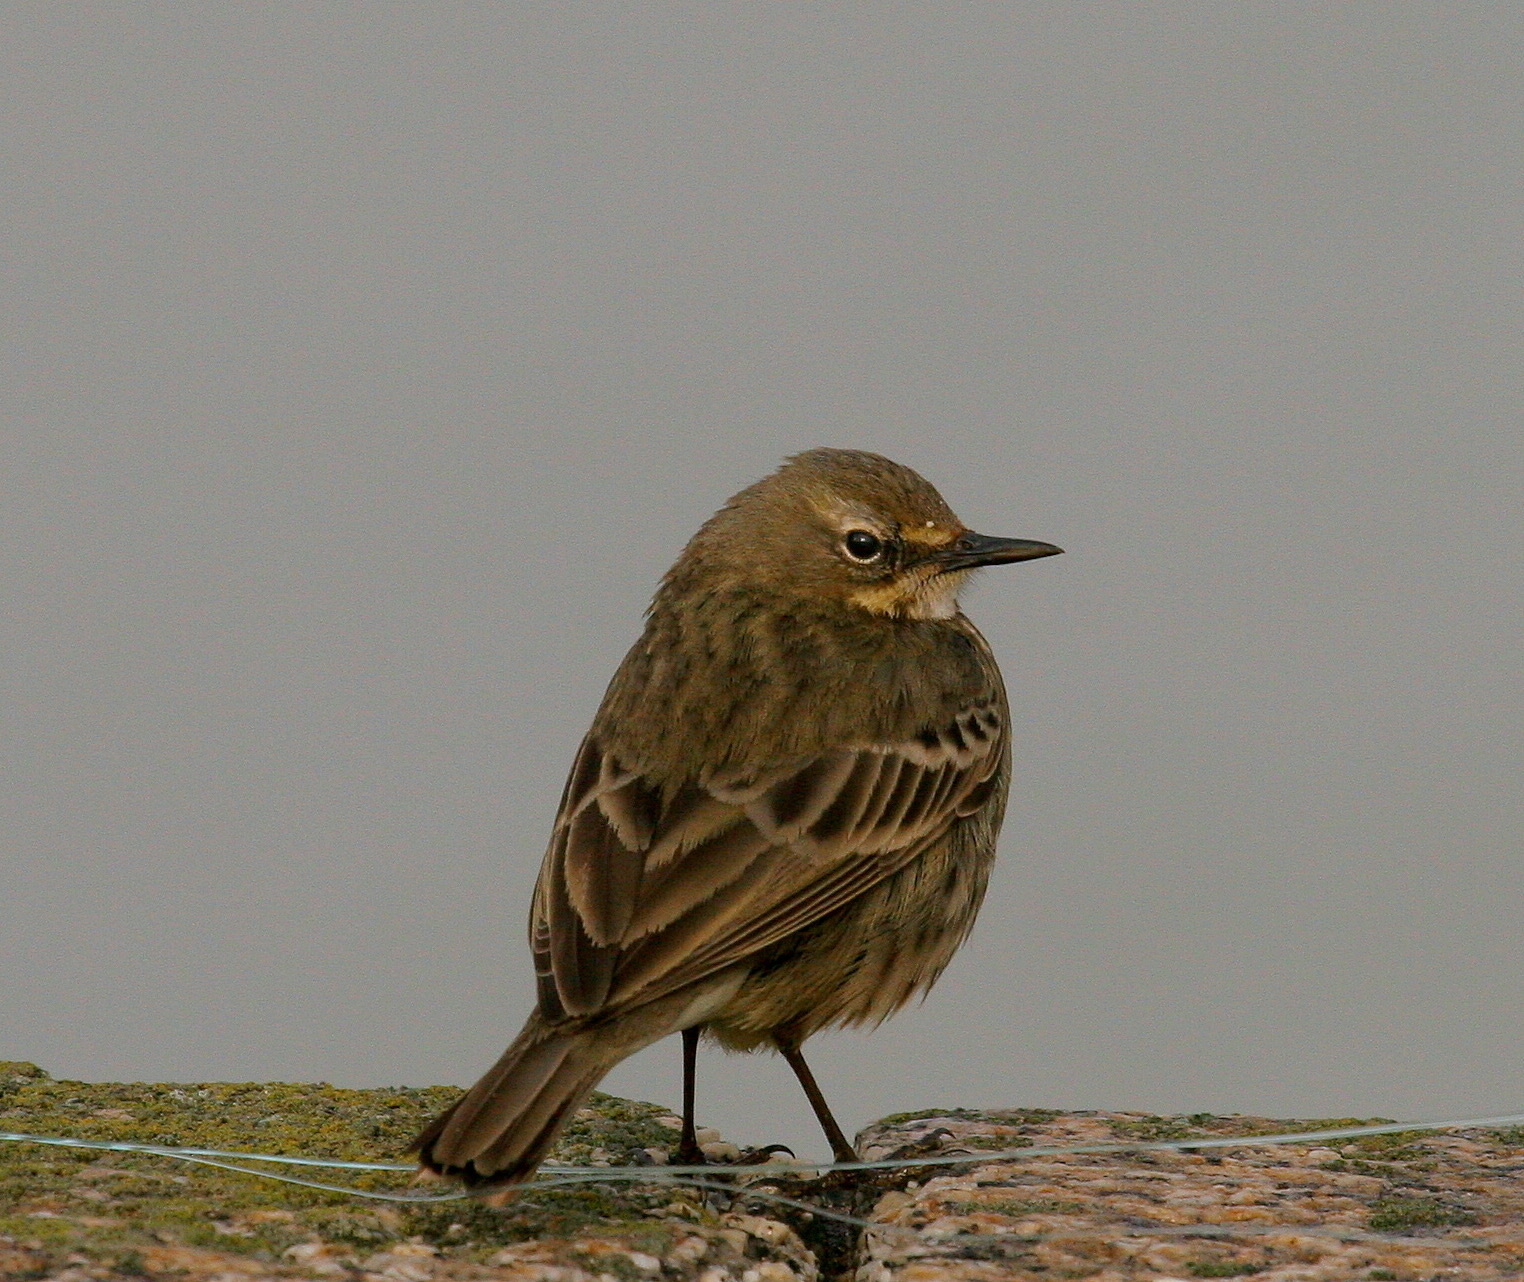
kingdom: Animalia
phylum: Chordata
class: Aves
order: Passeriformes
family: Motacillidae
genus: Anthus
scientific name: Anthus petrosus
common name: Eurasian rock pipit
